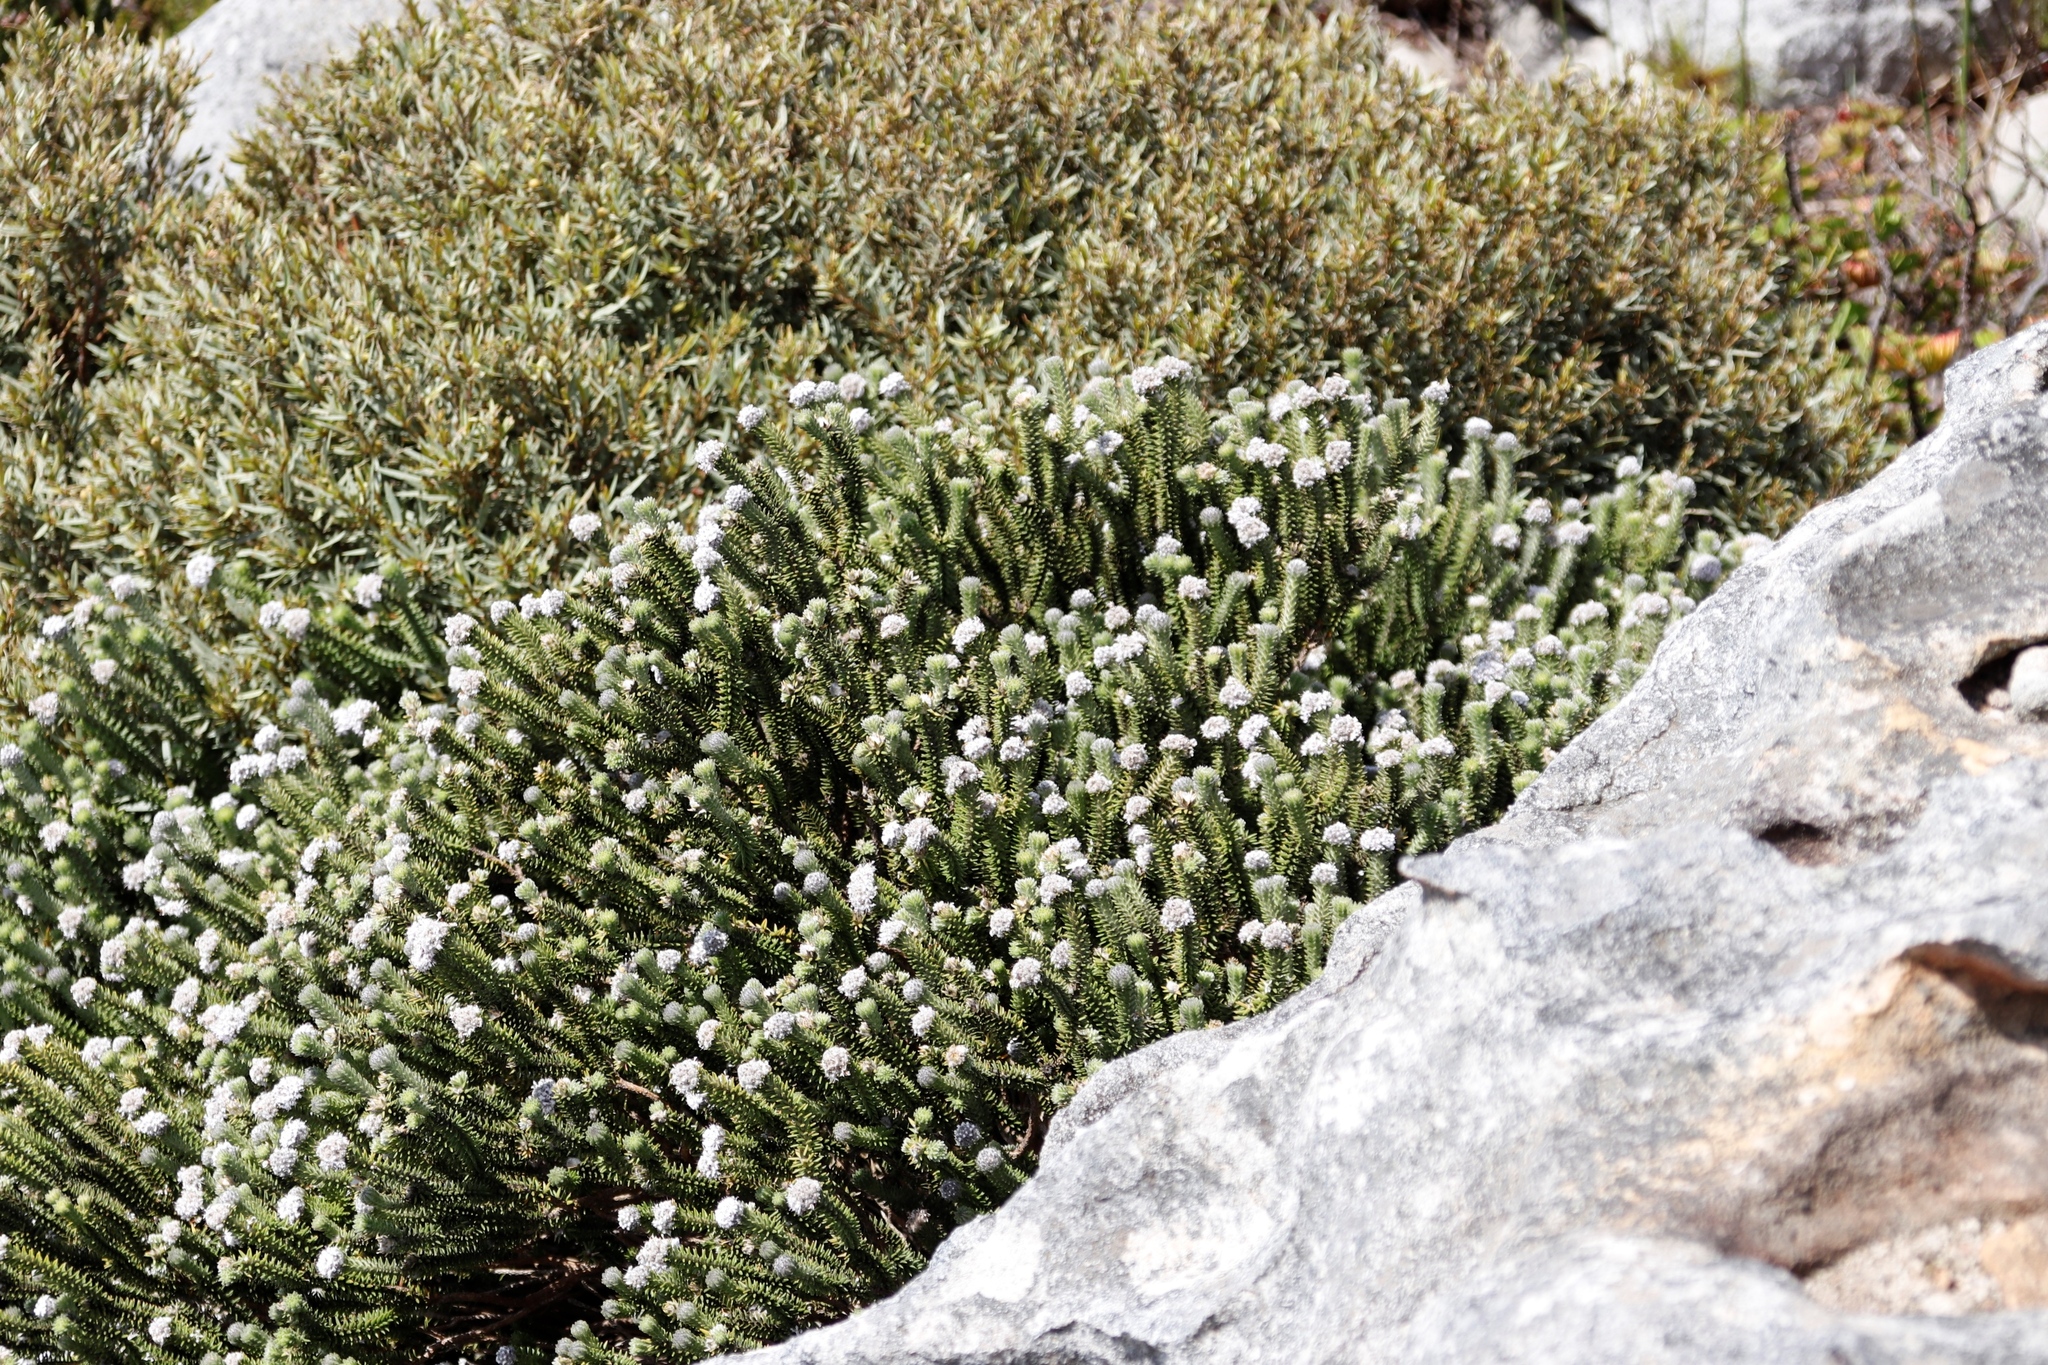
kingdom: Plantae
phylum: Tracheophyta
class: Magnoliopsida
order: Lamiales
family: Stilbaceae
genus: Kogelbergia
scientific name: Kogelbergia verticillata
